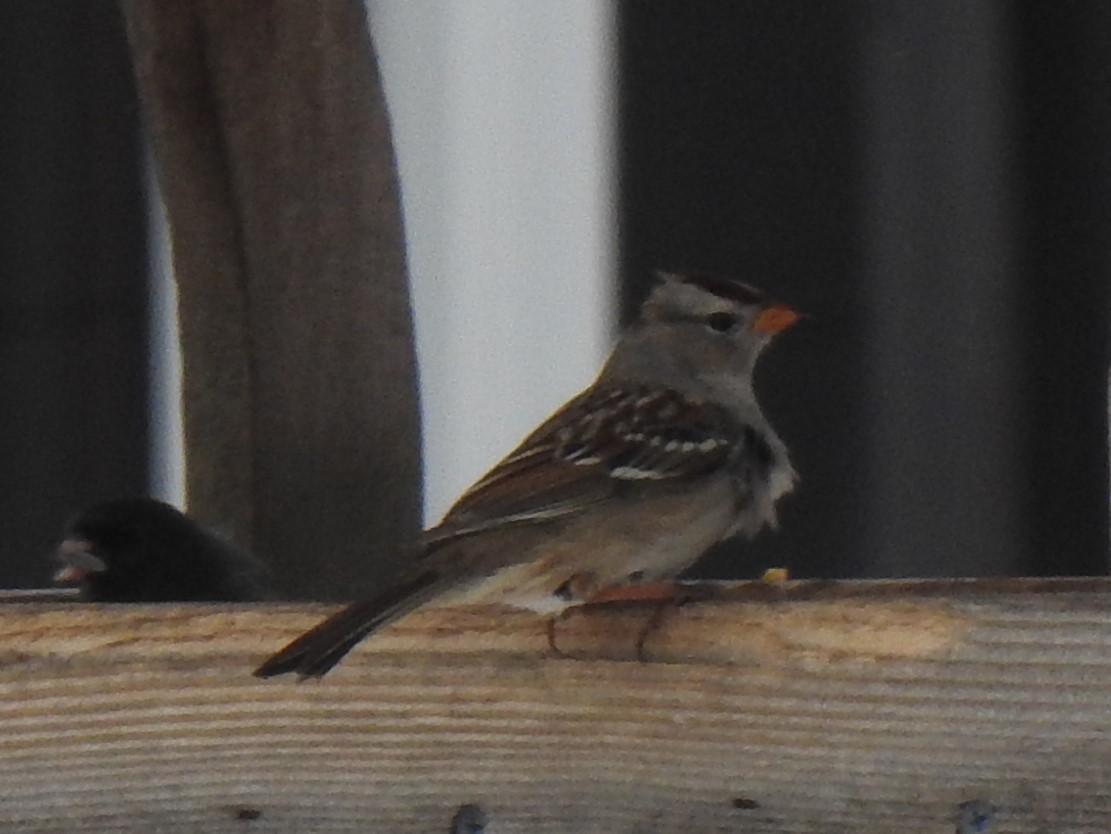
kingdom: Animalia
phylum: Chordata
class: Aves
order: Passeriformes
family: Passerellidae
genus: Zonotrichia
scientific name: Zonotrichia leucophrys
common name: White-crowned sparrow
